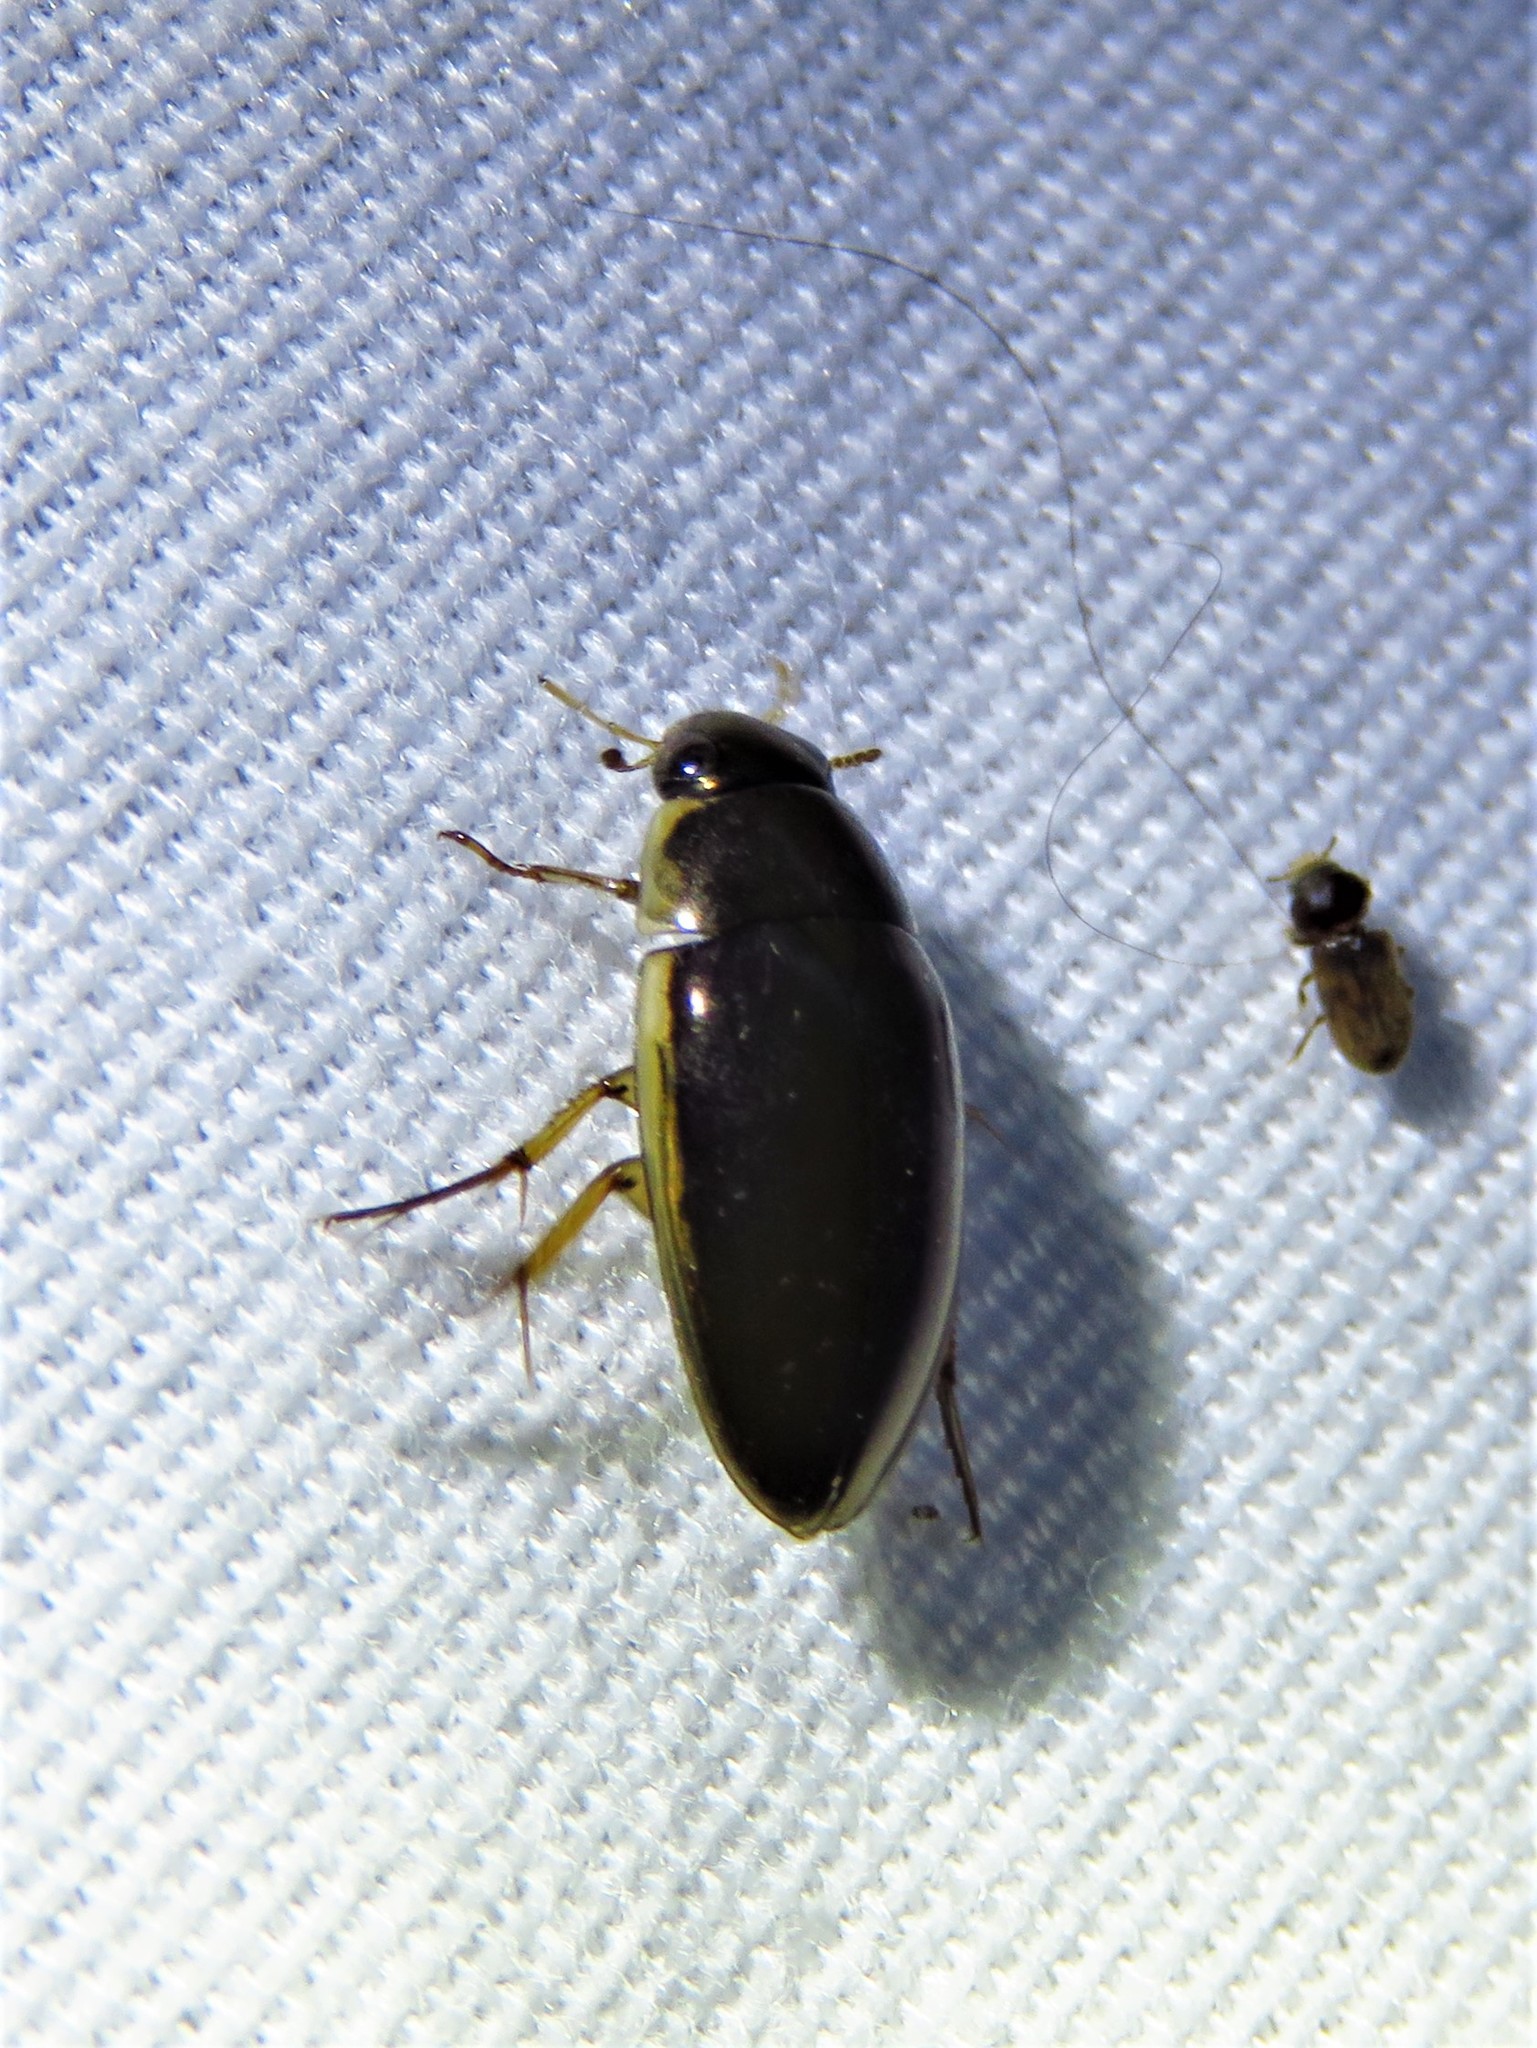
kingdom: Animalia
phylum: Arthropoda
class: Insecta
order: Coleoptera
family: Hydrophilidae
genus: Tropisternus
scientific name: Tropisternus lateralis
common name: Lateral-banded water scavenger beetle
